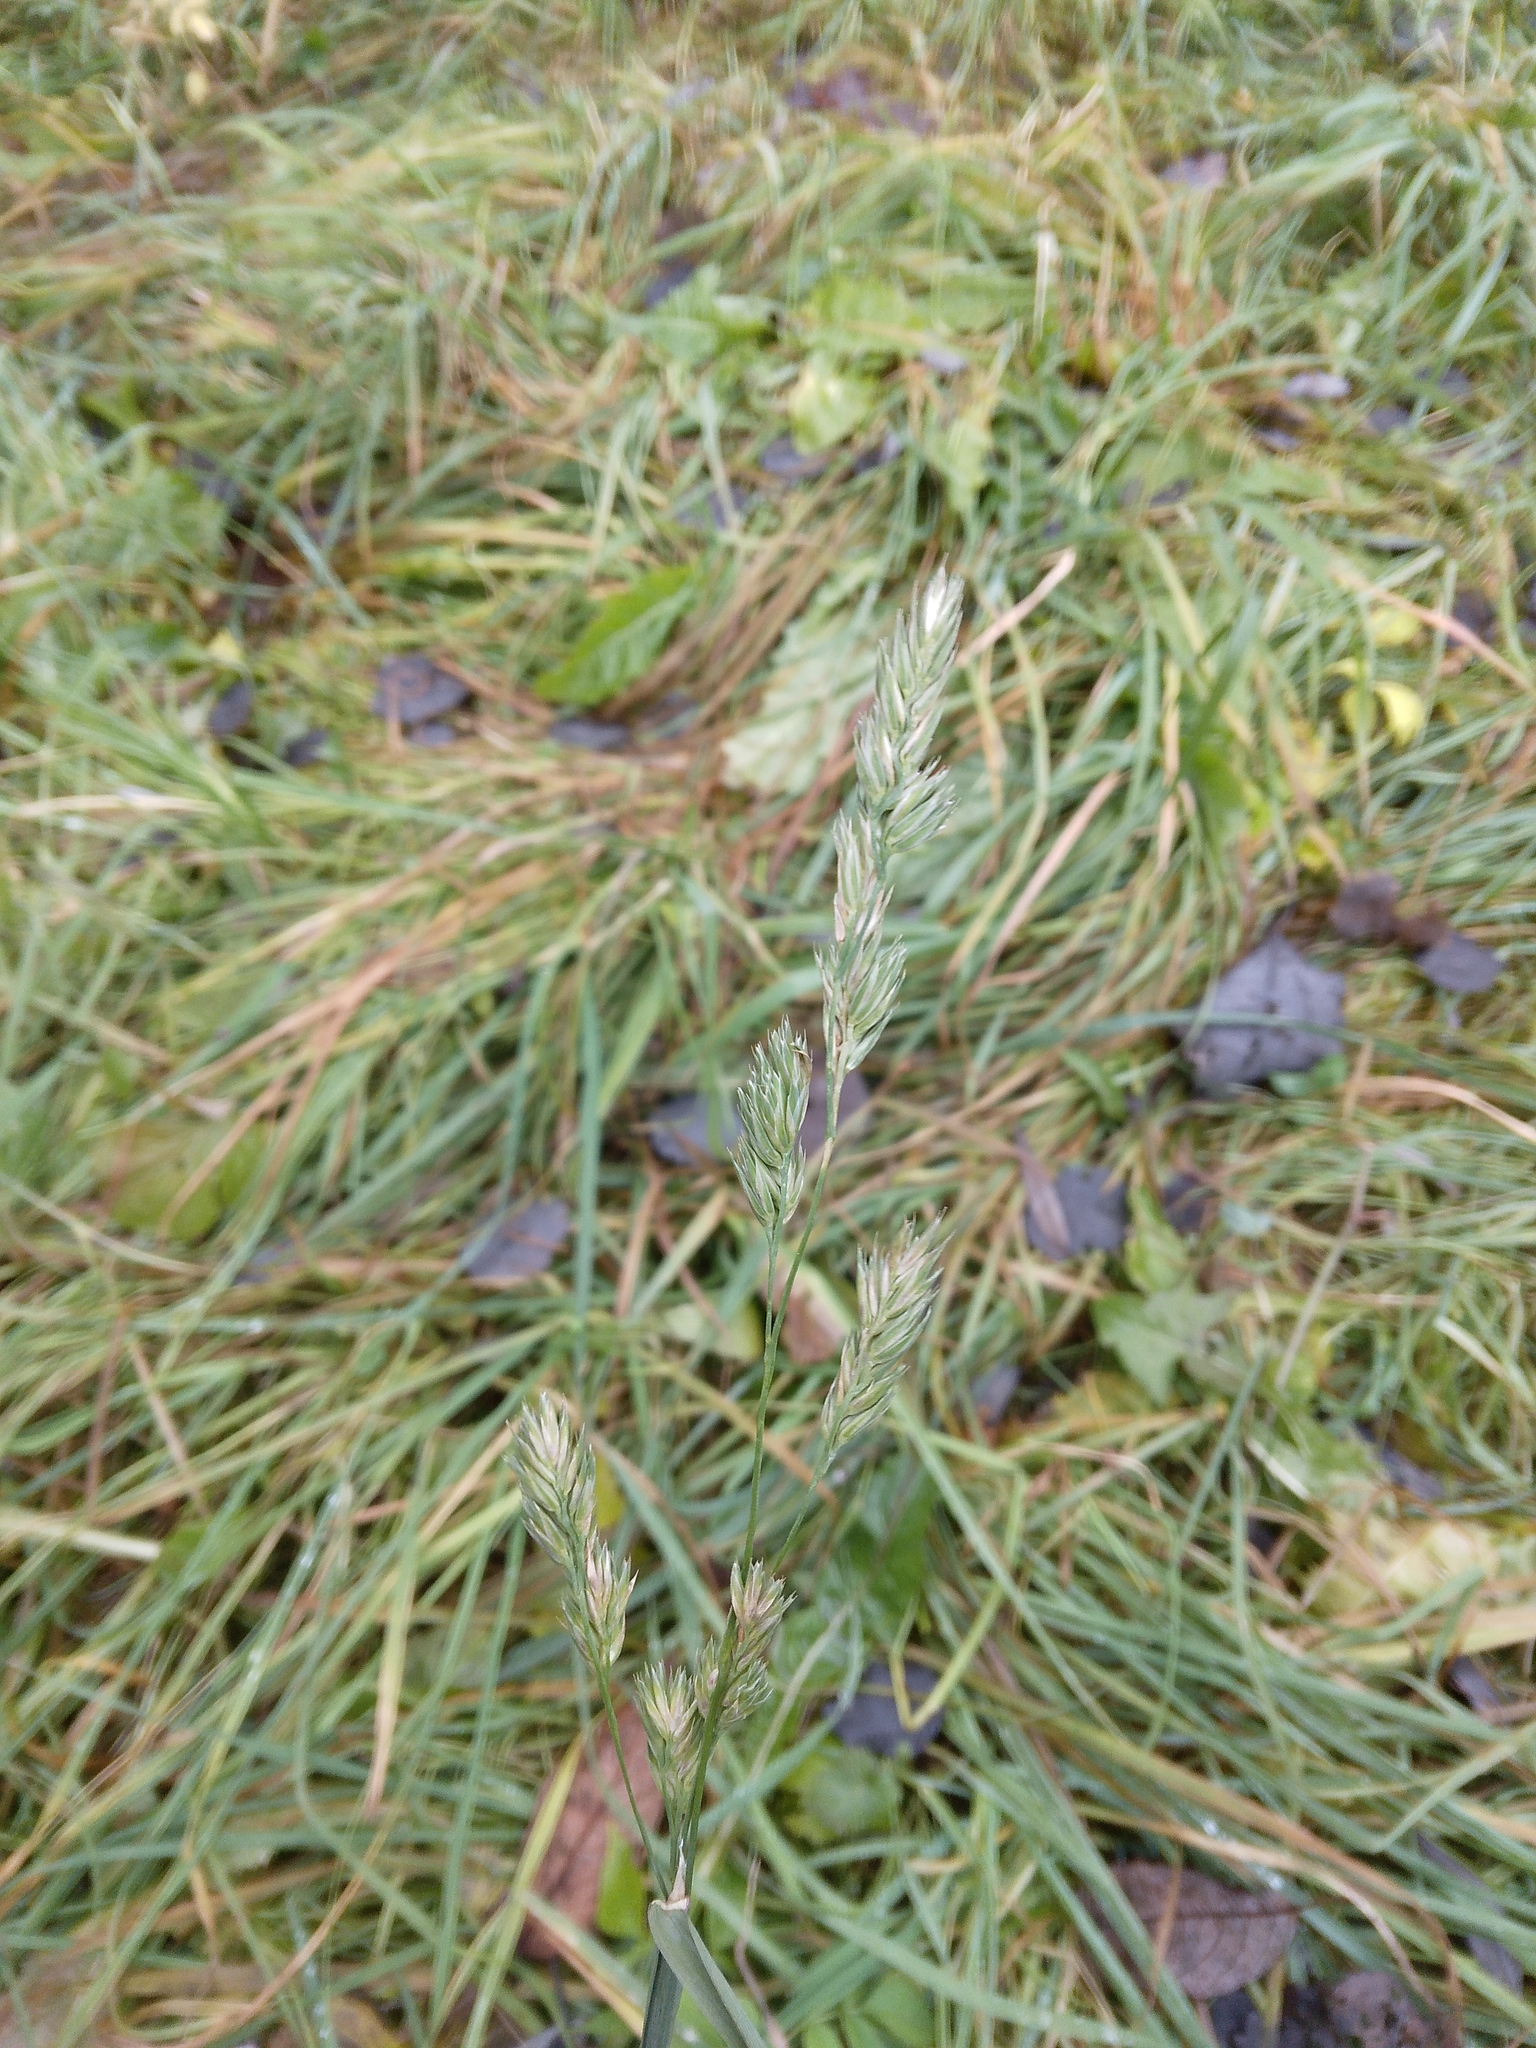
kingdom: Plantae
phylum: Tracheophyta
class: Liliopsida
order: Poales
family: Poaceae
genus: Dactylis
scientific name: Dactylis glomerata
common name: Orchardgrass
